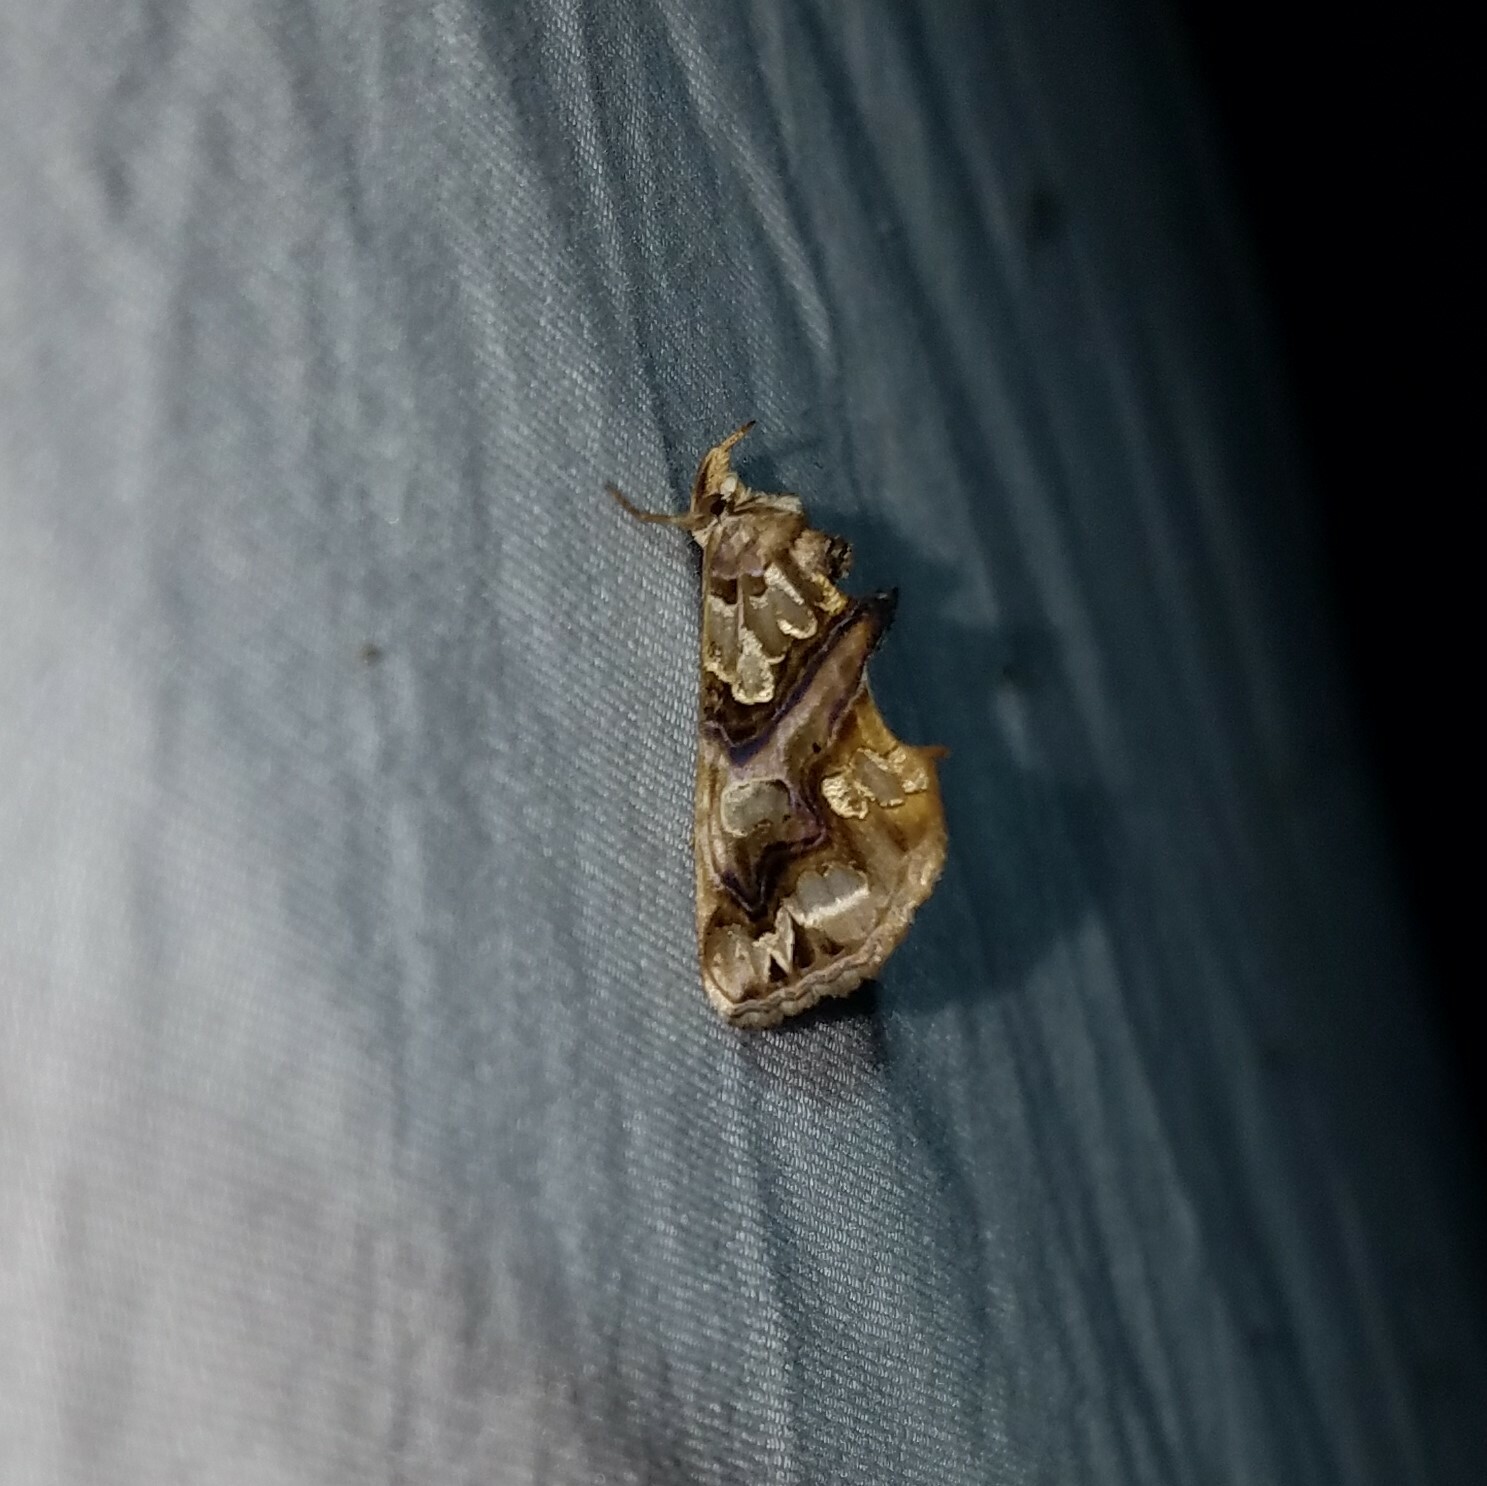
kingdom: Animalia
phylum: Arthropoda
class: Insecta
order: Lepidoptera
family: Erebidae
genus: Plusiodonta
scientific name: Plusiodonta compressipalpis
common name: Moonseed moth
